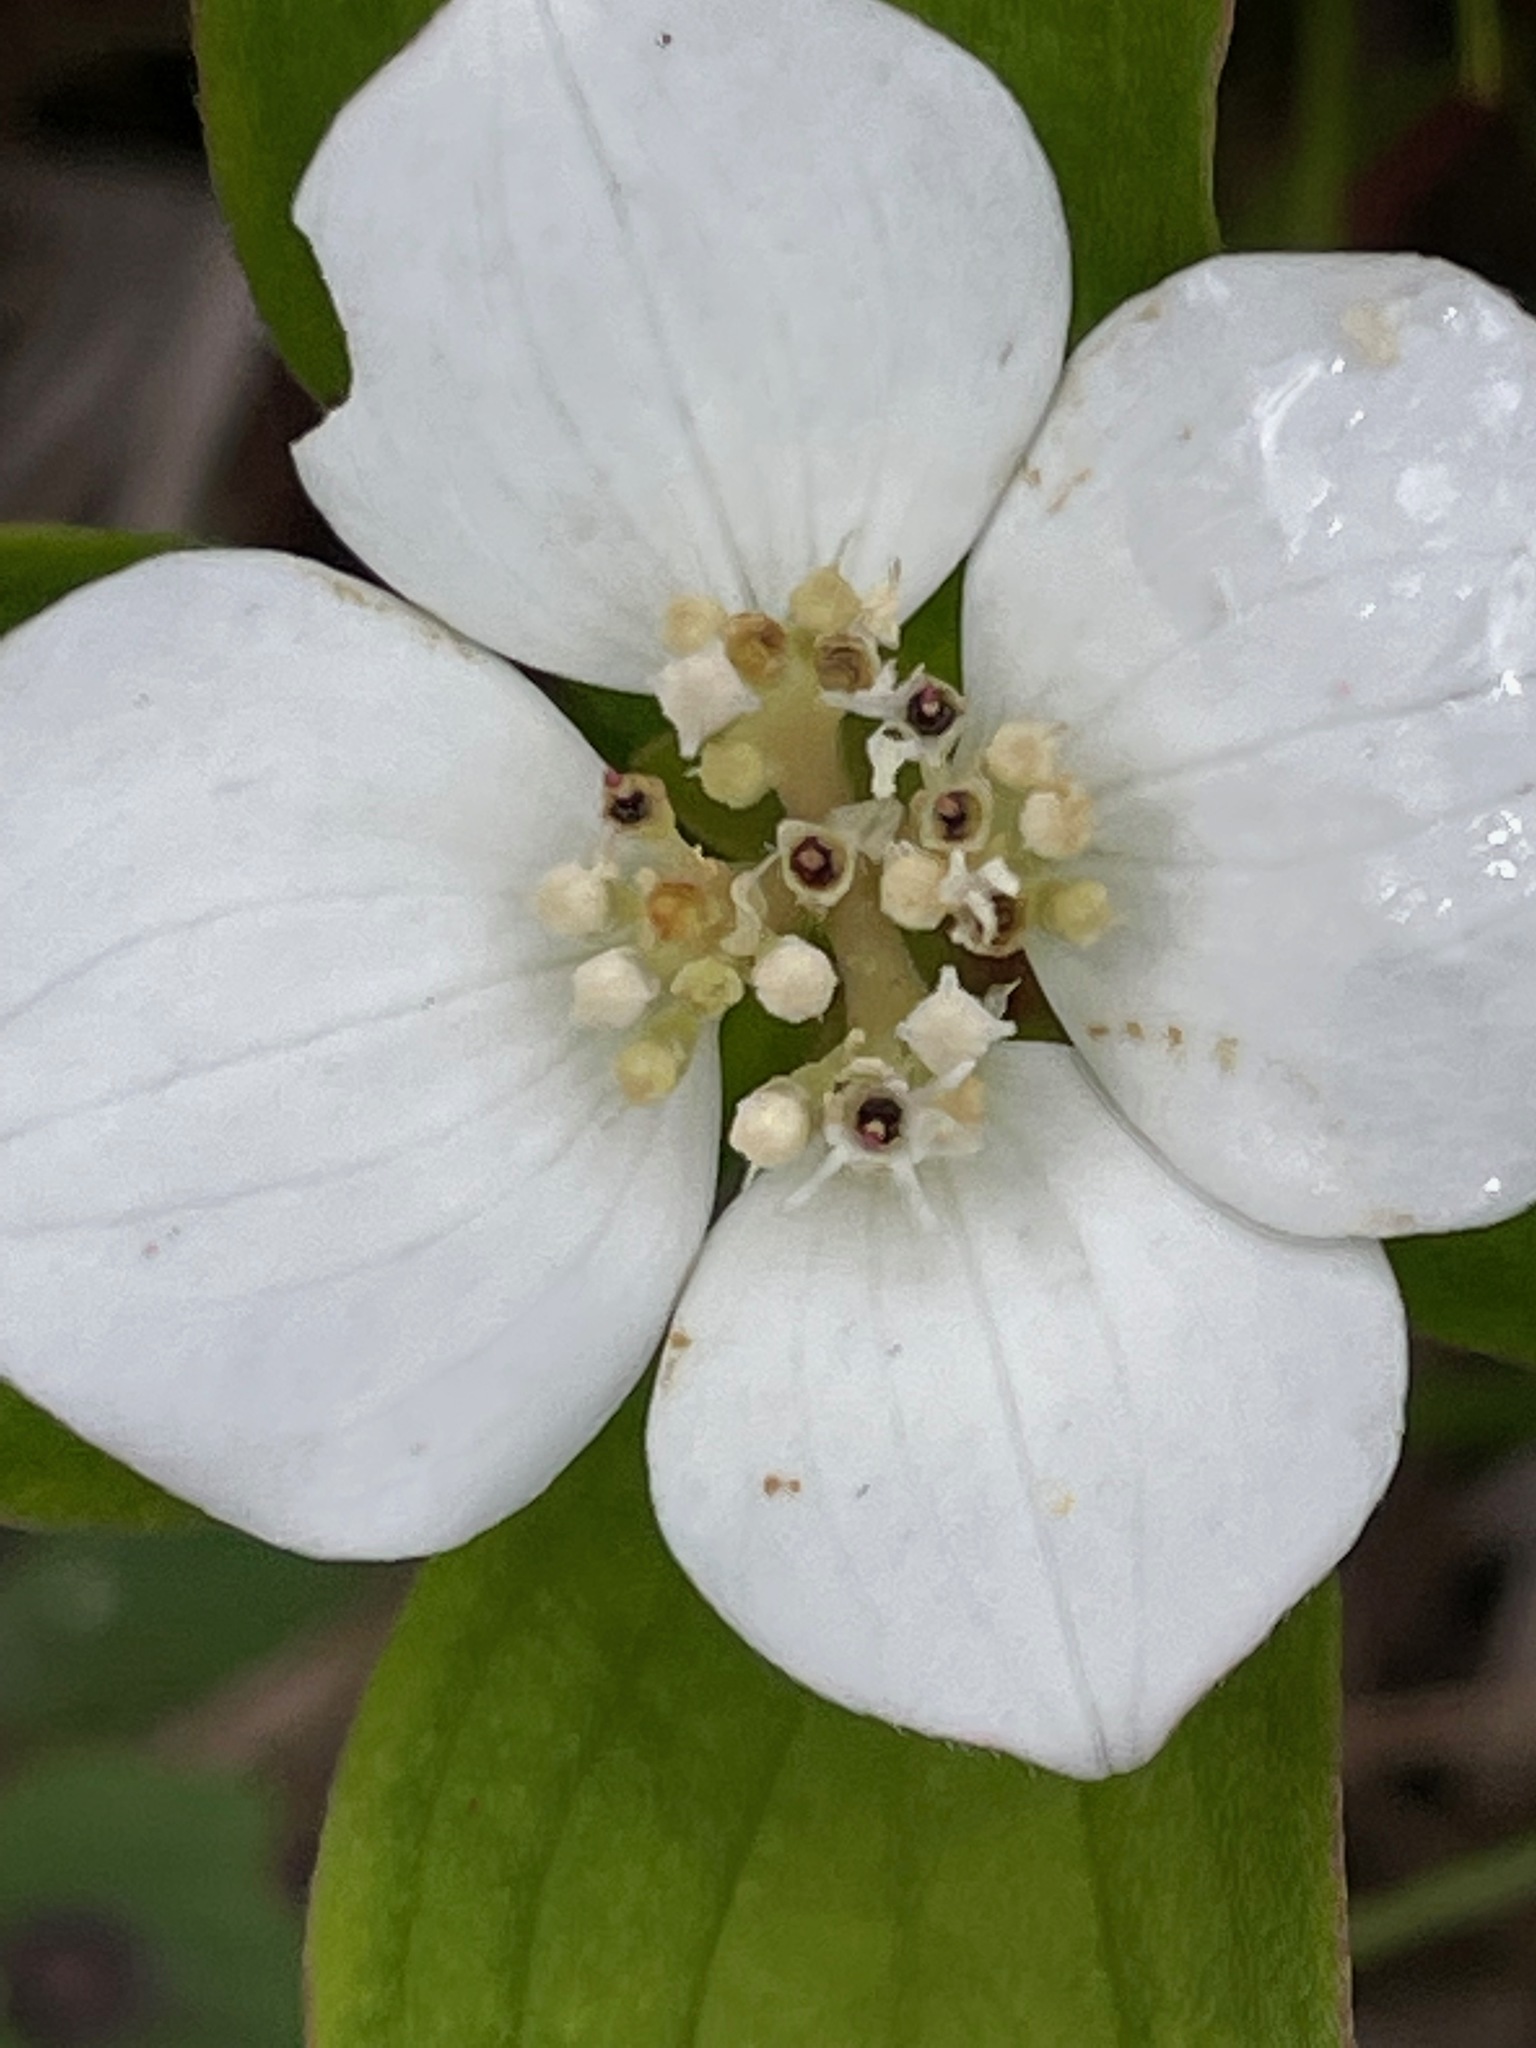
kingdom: Plantae
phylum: Tracheophyta
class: Magnoliopsida
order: Cornales
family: Cornaceae
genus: Cornus
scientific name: Cornus canadensis
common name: Creeping dogwood
